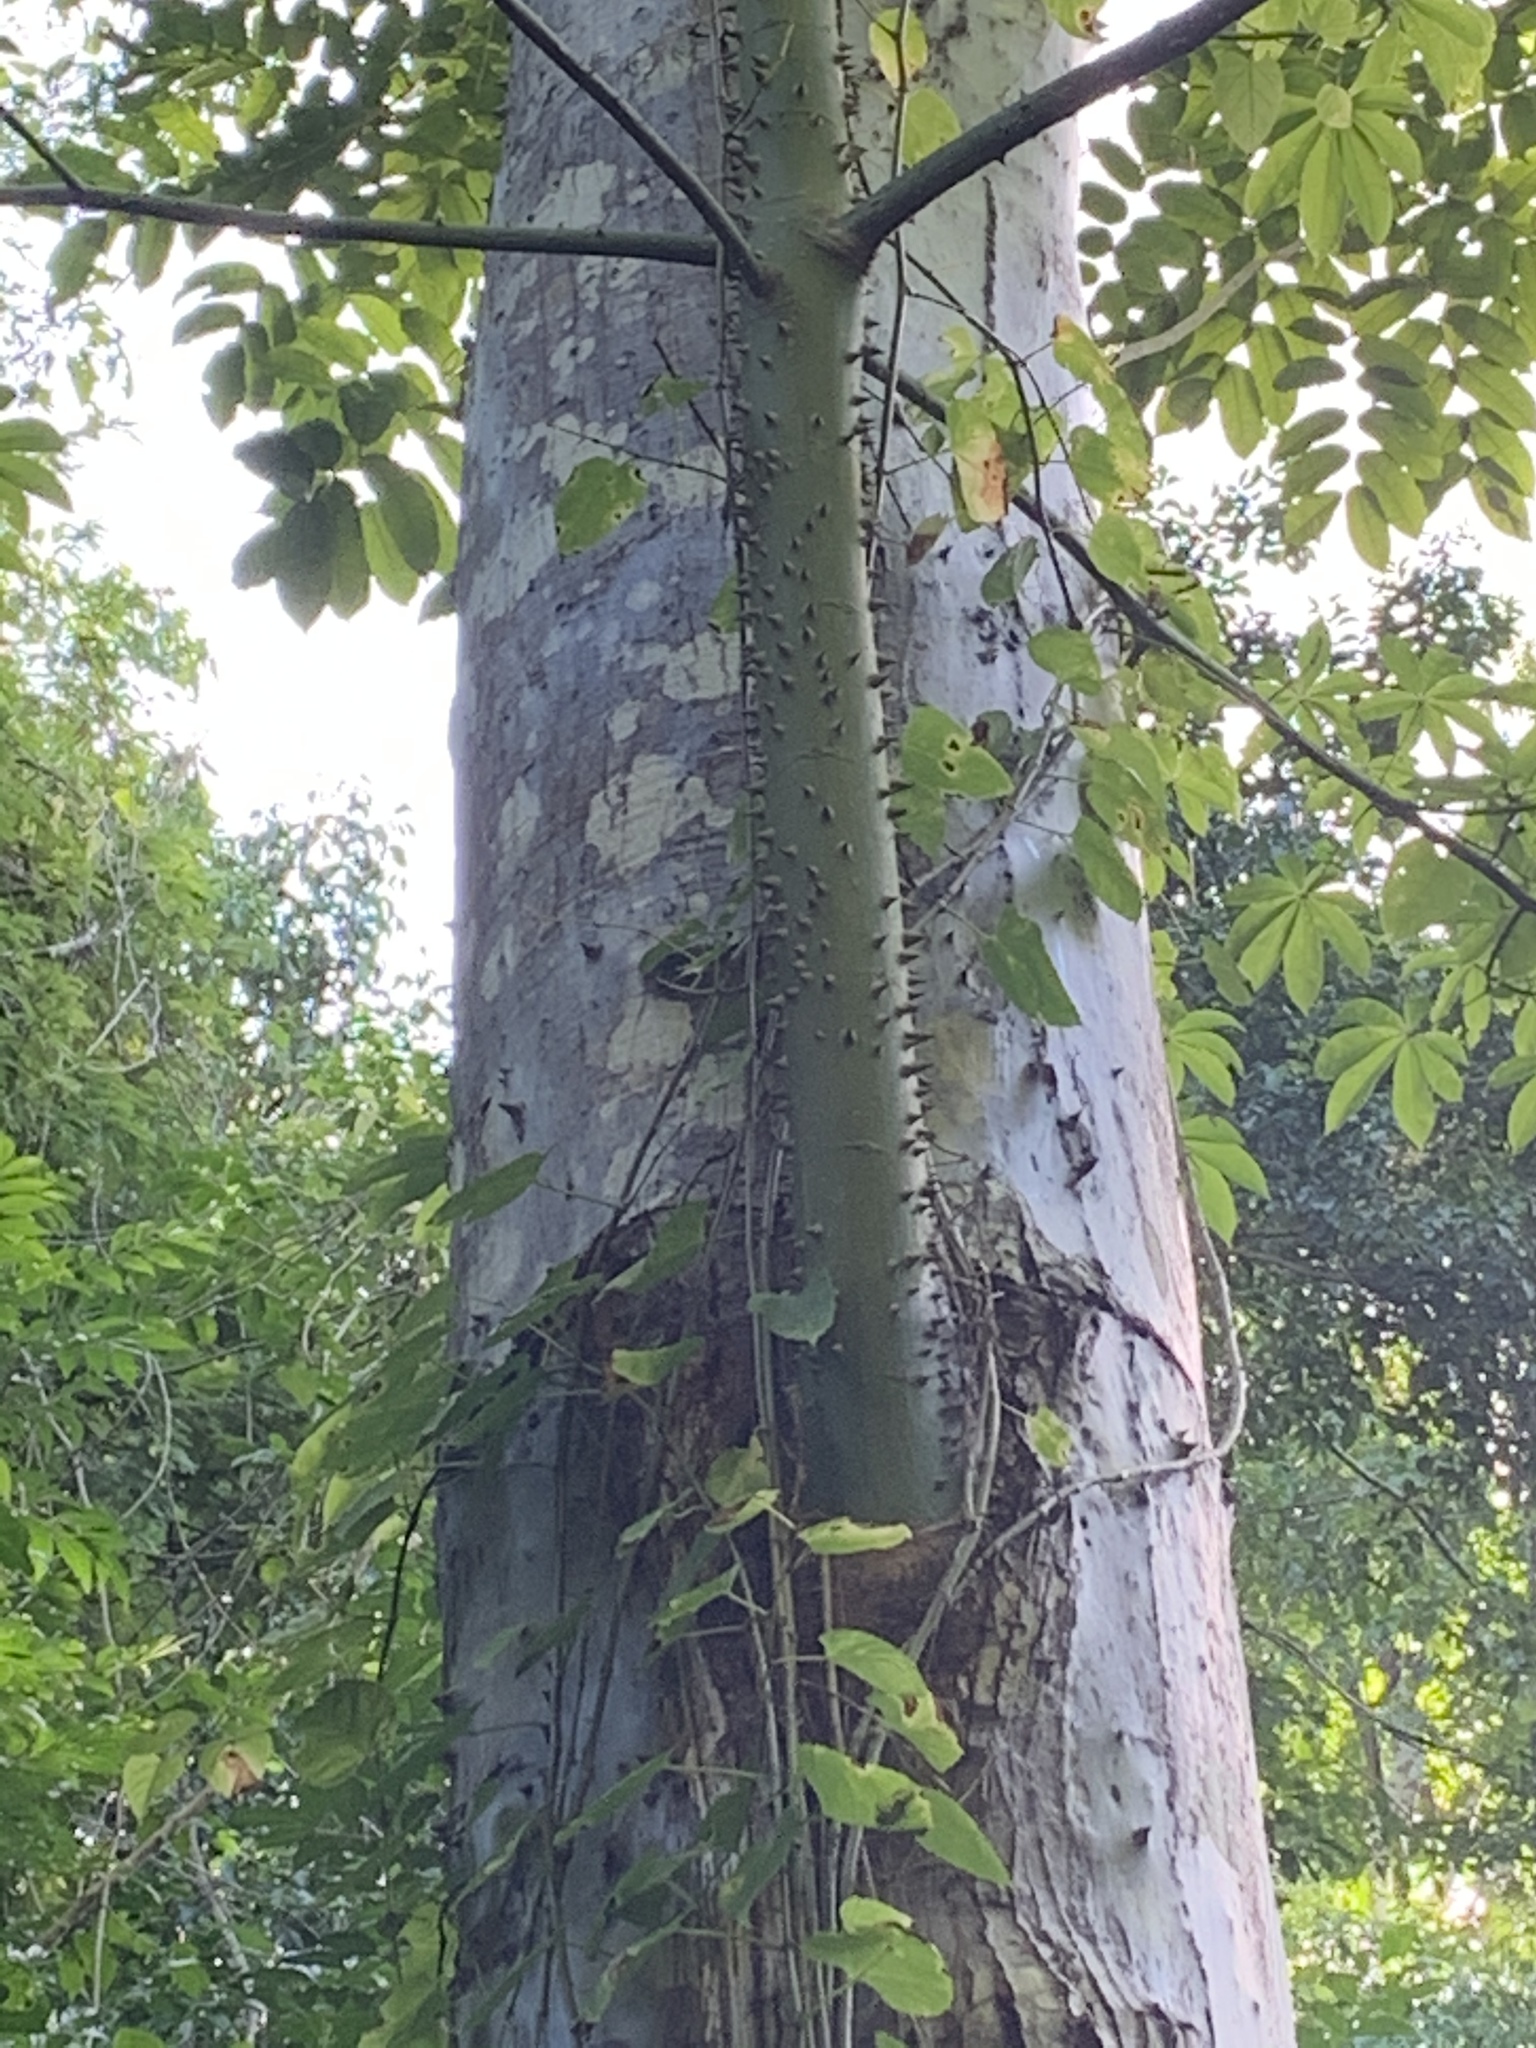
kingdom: Plantae
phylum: Tracheophyta
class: Magnoliopsida
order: Malvales
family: Malvaceae
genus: Ceiba
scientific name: Ceiba pentandra
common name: Kapok
